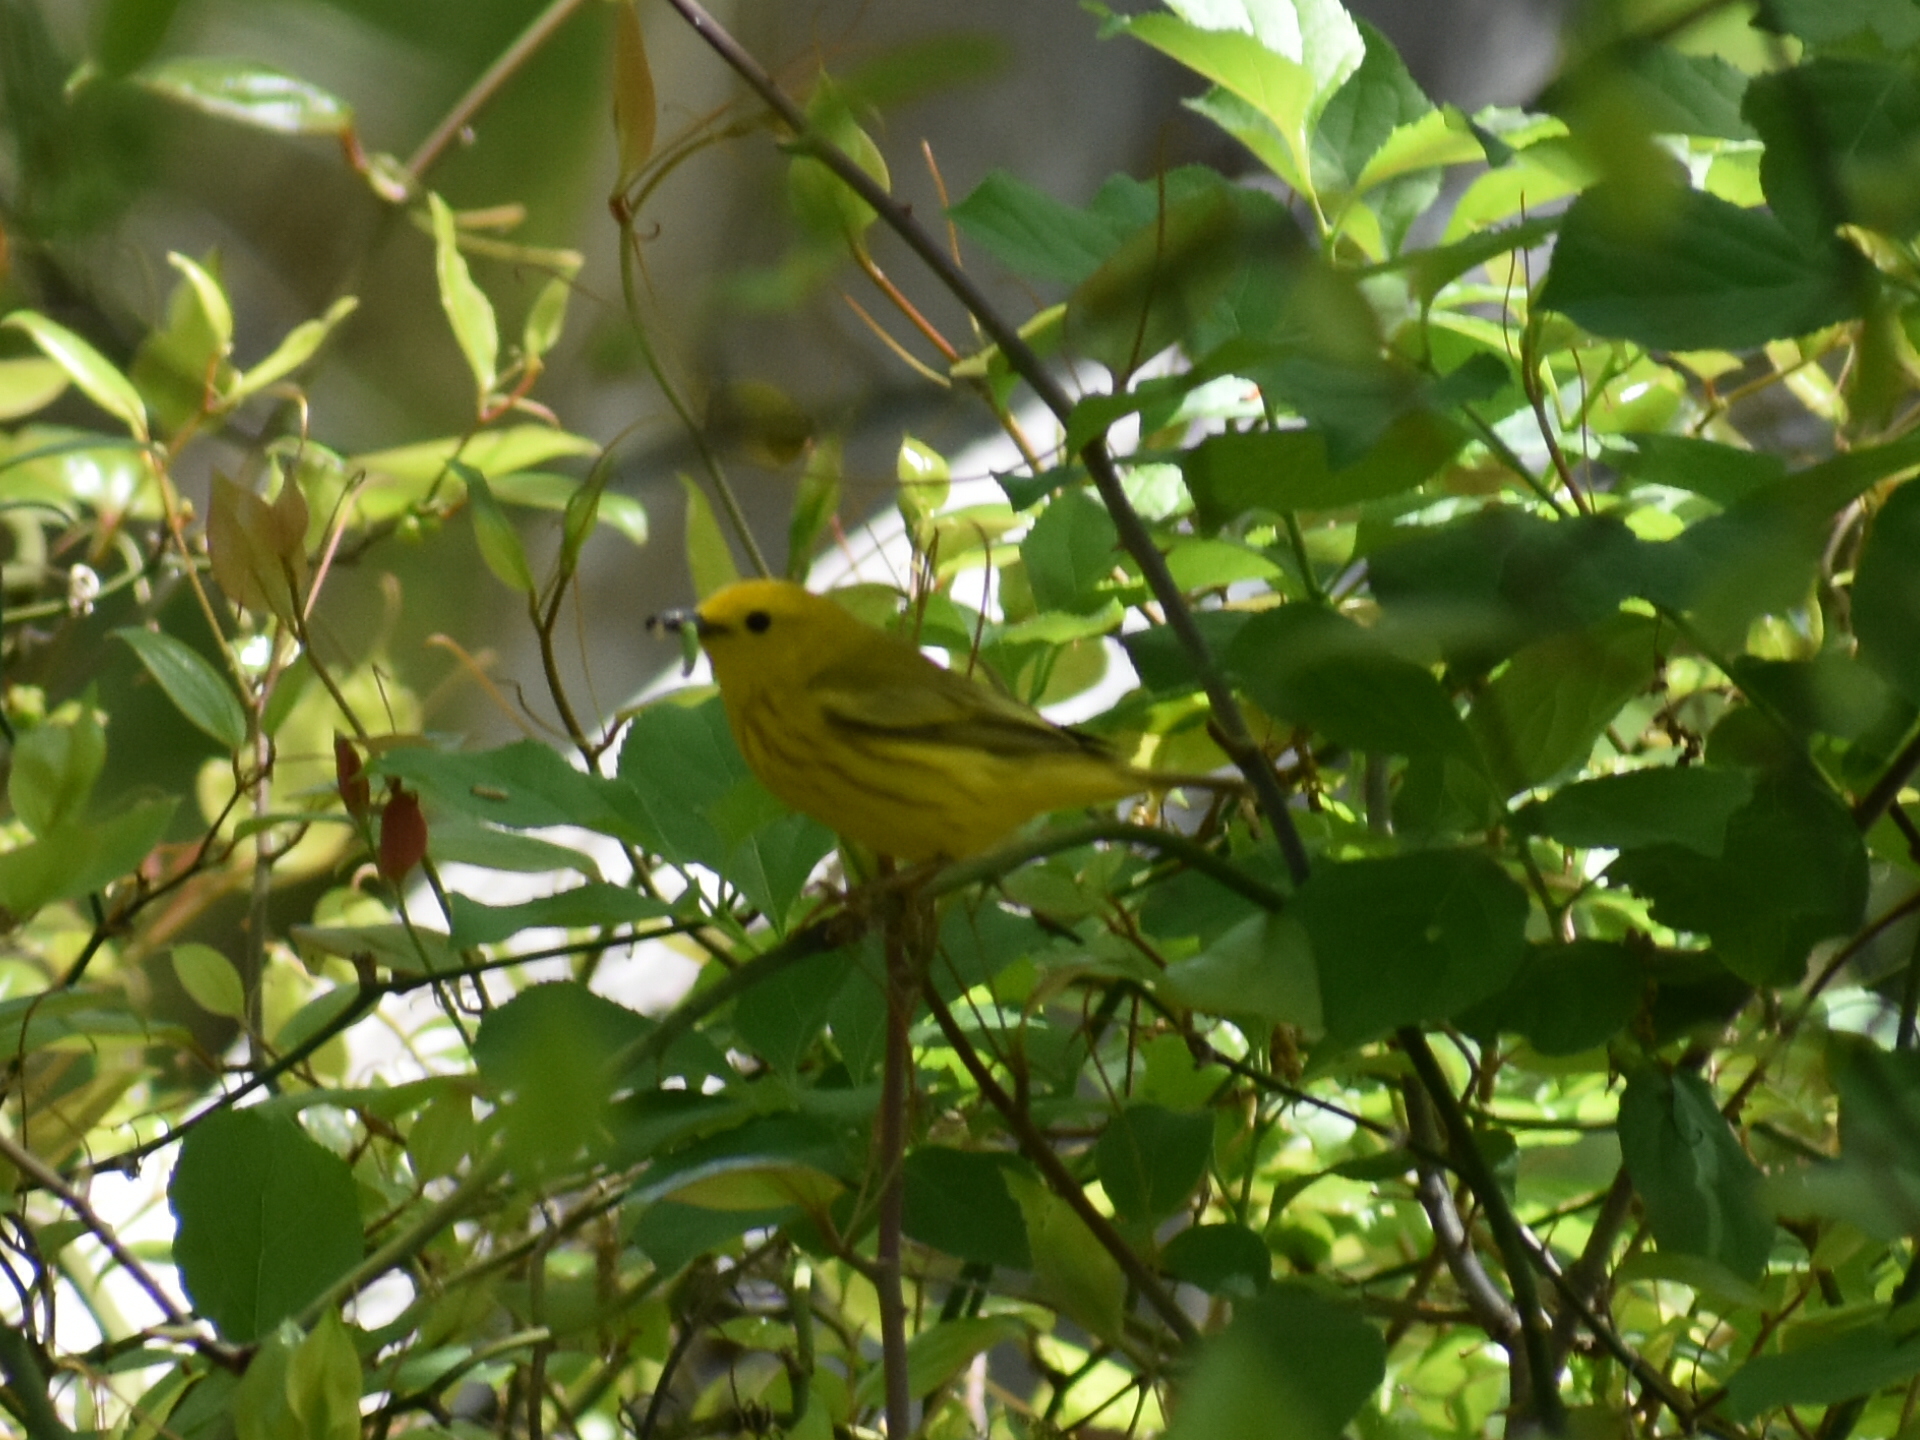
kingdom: Animalia
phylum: Chordata
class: Aves
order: Passeriformes
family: Parulidae
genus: Setophaga
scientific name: Setophaga petechia
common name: Yellow warbler
